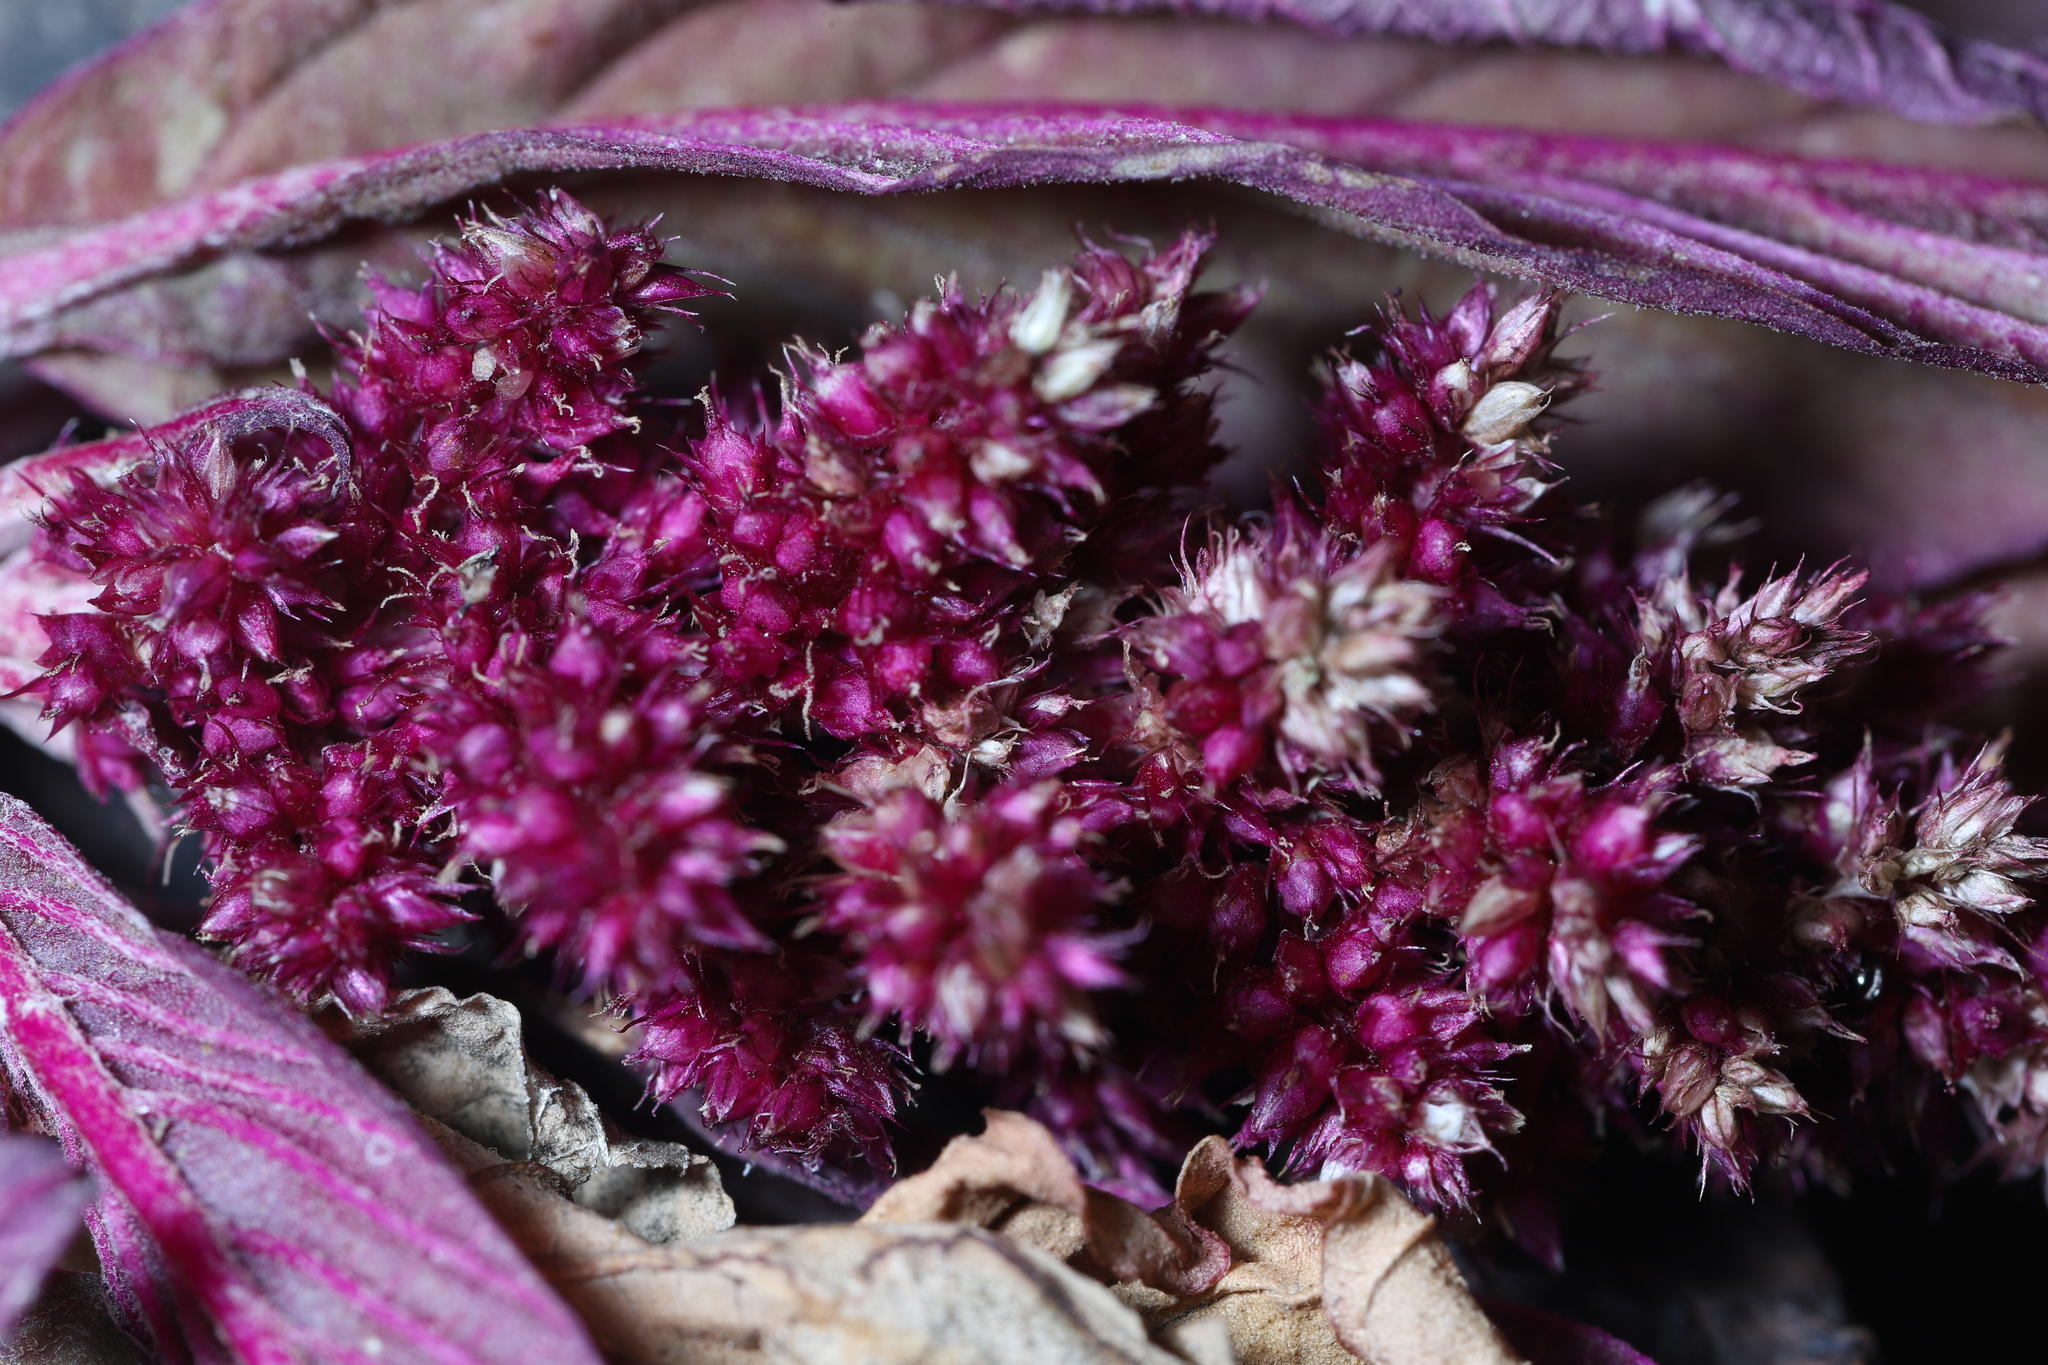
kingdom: Plantae
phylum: Tracheophyta
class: Magnoliopsida
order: Caryophyllales
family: Amaranthaceae
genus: Amaranthus
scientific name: Amaranthus cruentus
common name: Purple amaranth
